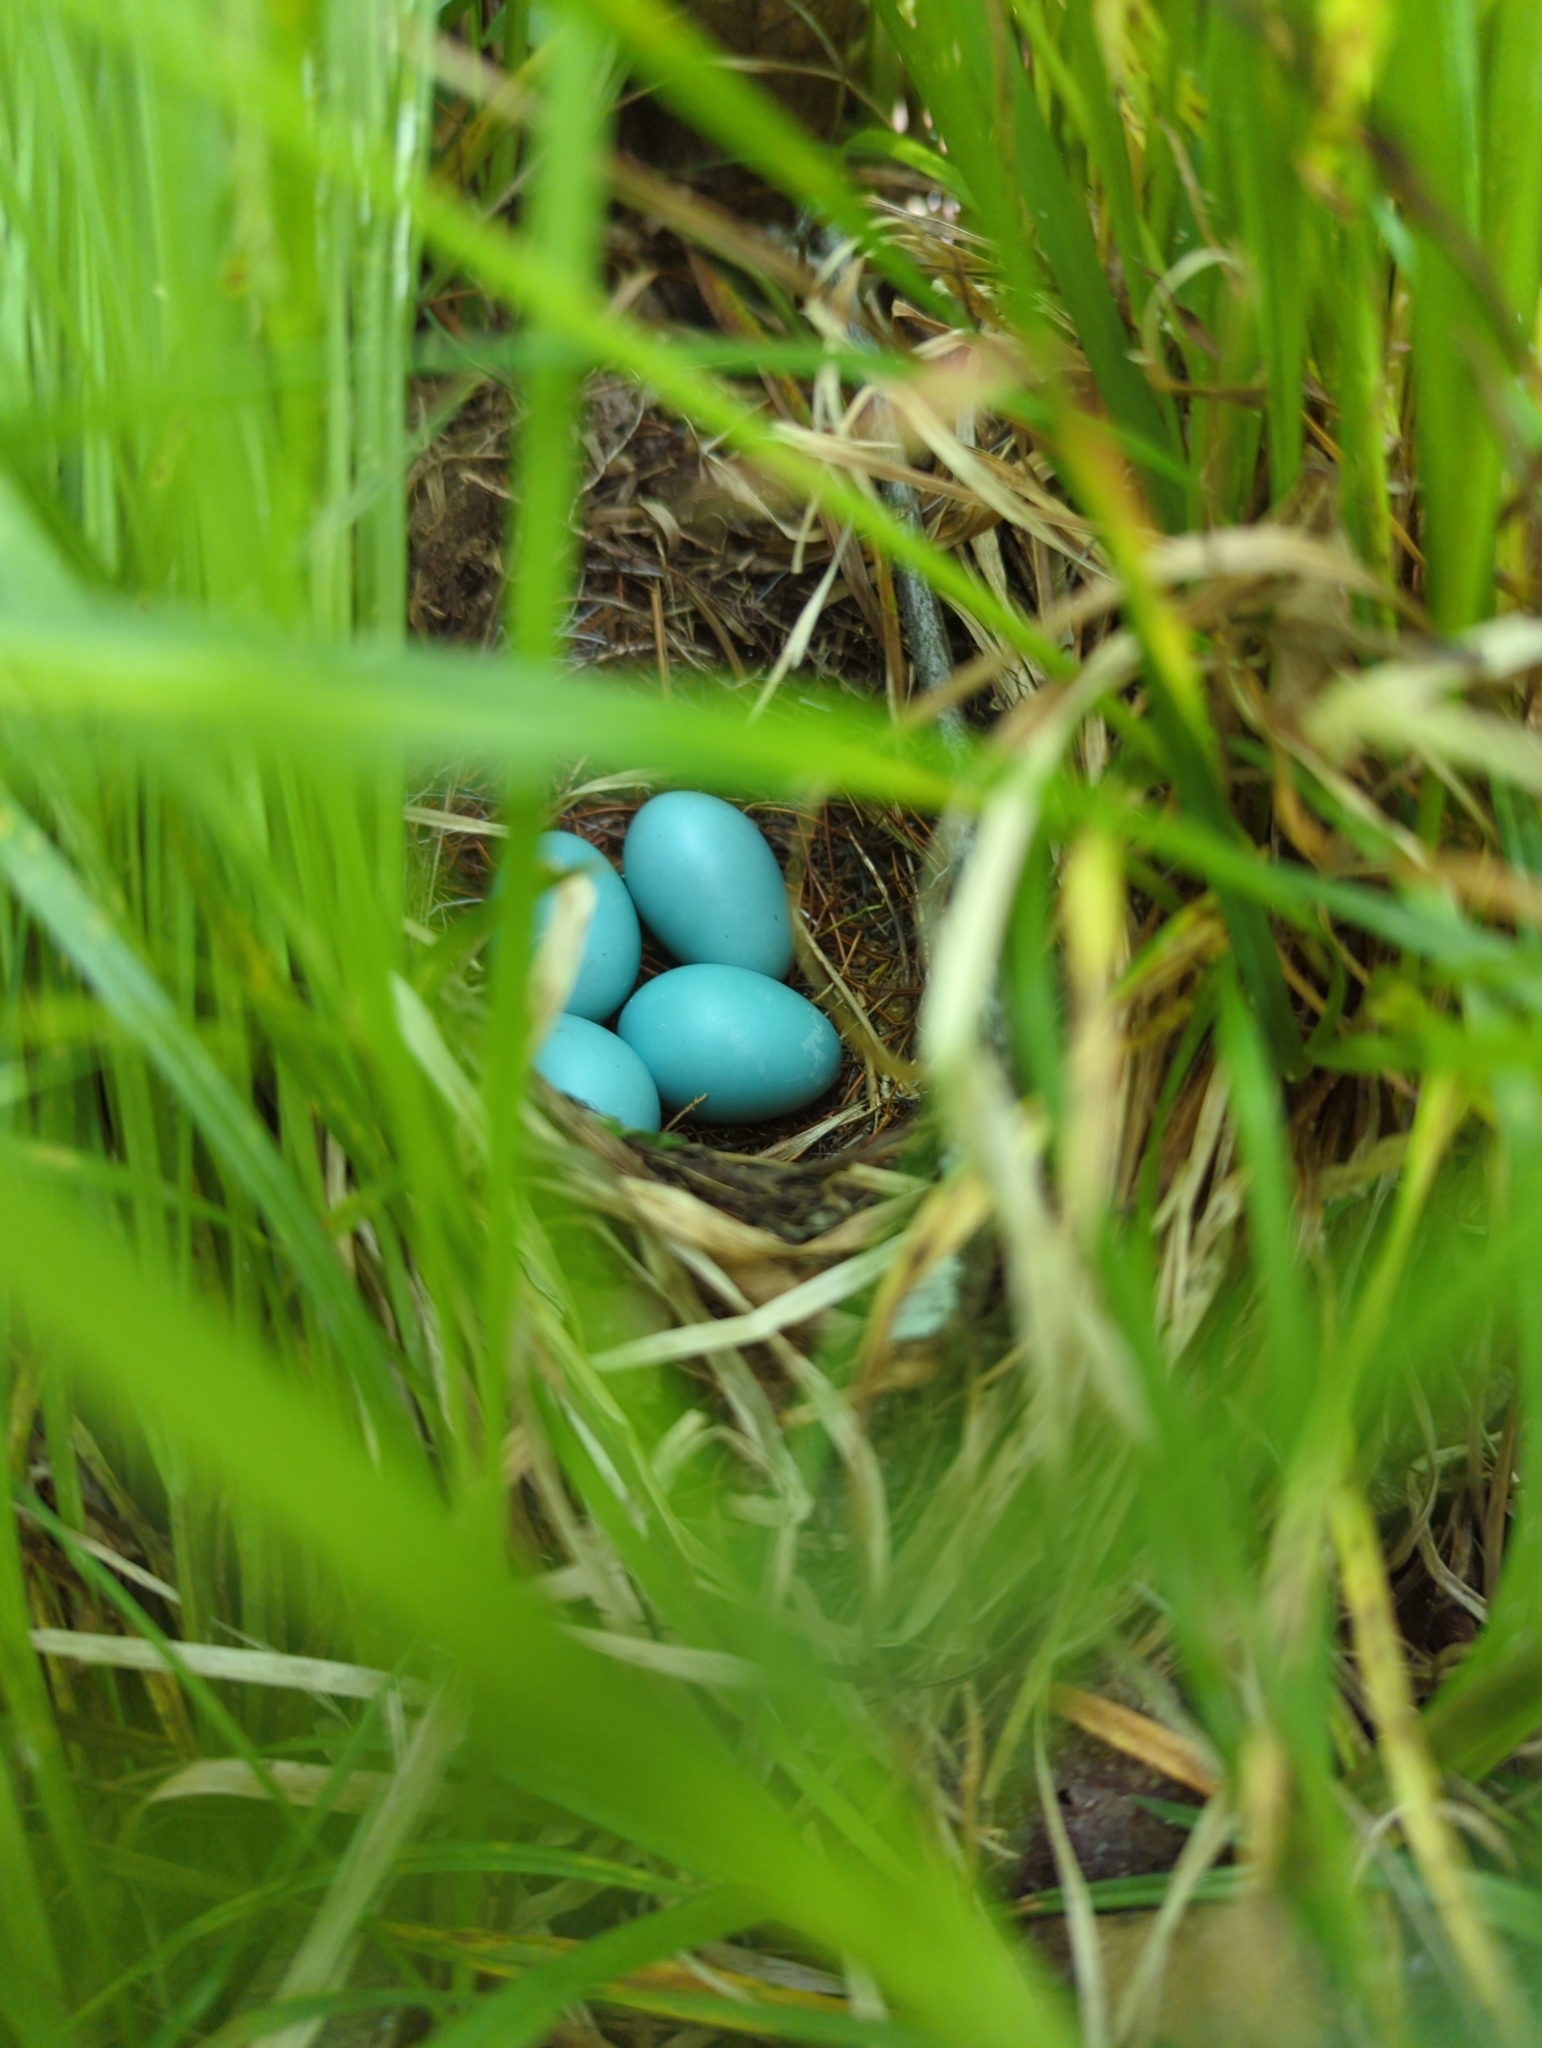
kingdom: Animalia
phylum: Chordata
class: Aves
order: Passeriformes
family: Turdidae
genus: Hylocichla
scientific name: Hylocichla mustelina
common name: Wood thrush
